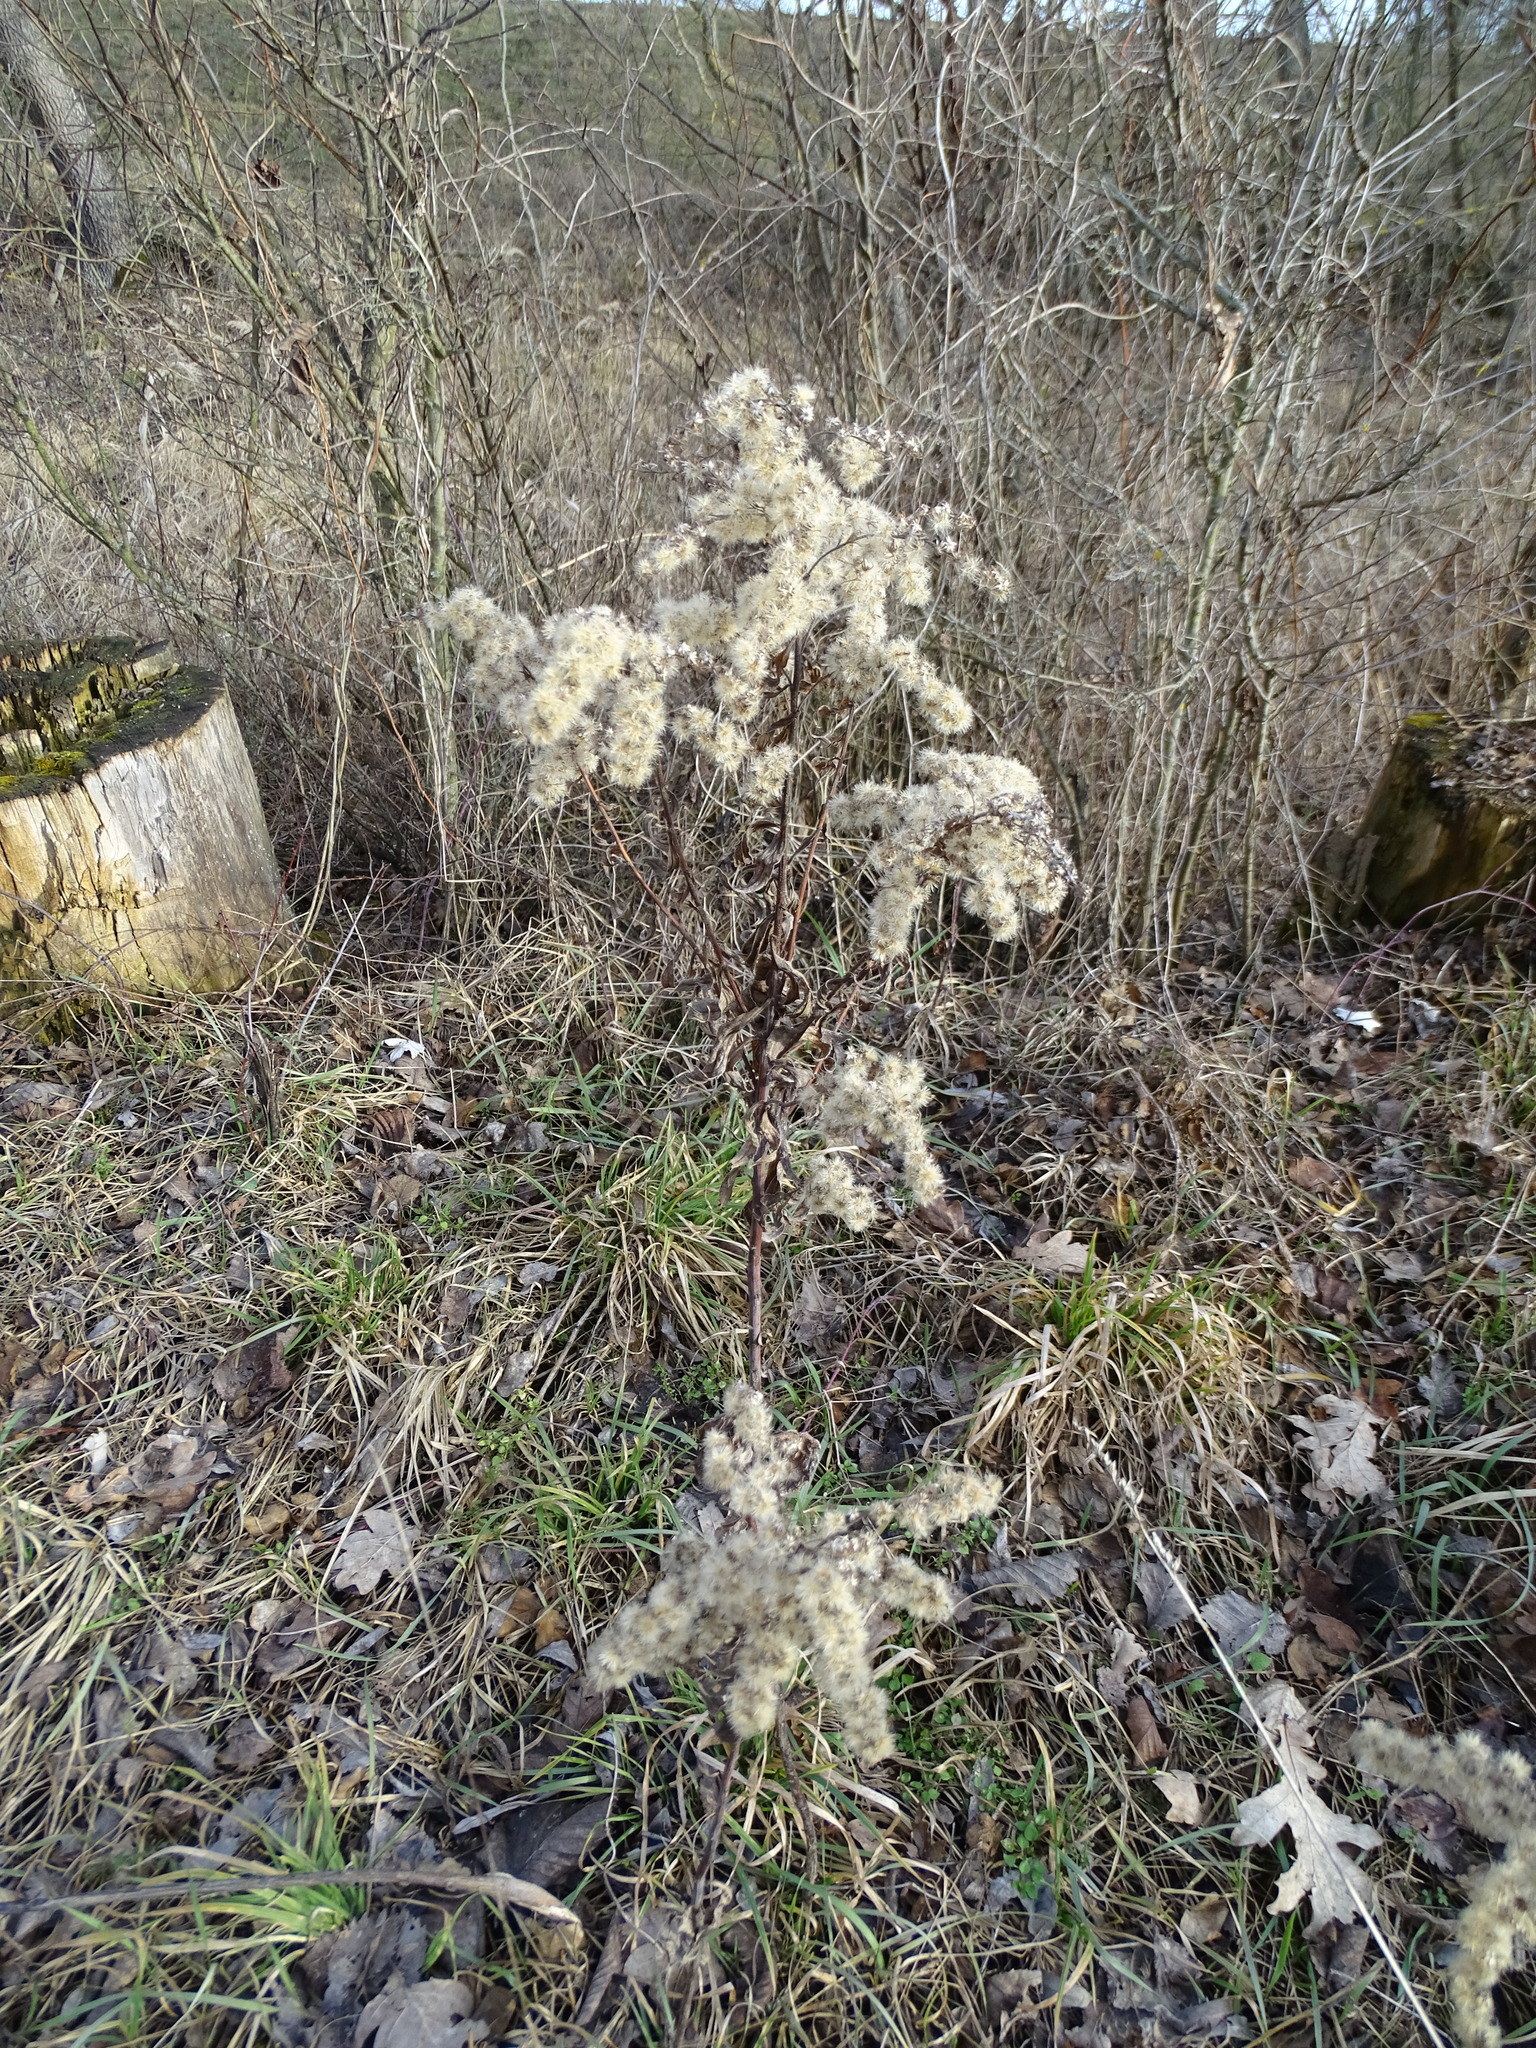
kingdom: Plantae
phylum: Tracheophyta
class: Magnoliopsida
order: Asterales
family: Asteraceae
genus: Solidago
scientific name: Solidago gigantea
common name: Giant goldenrod
